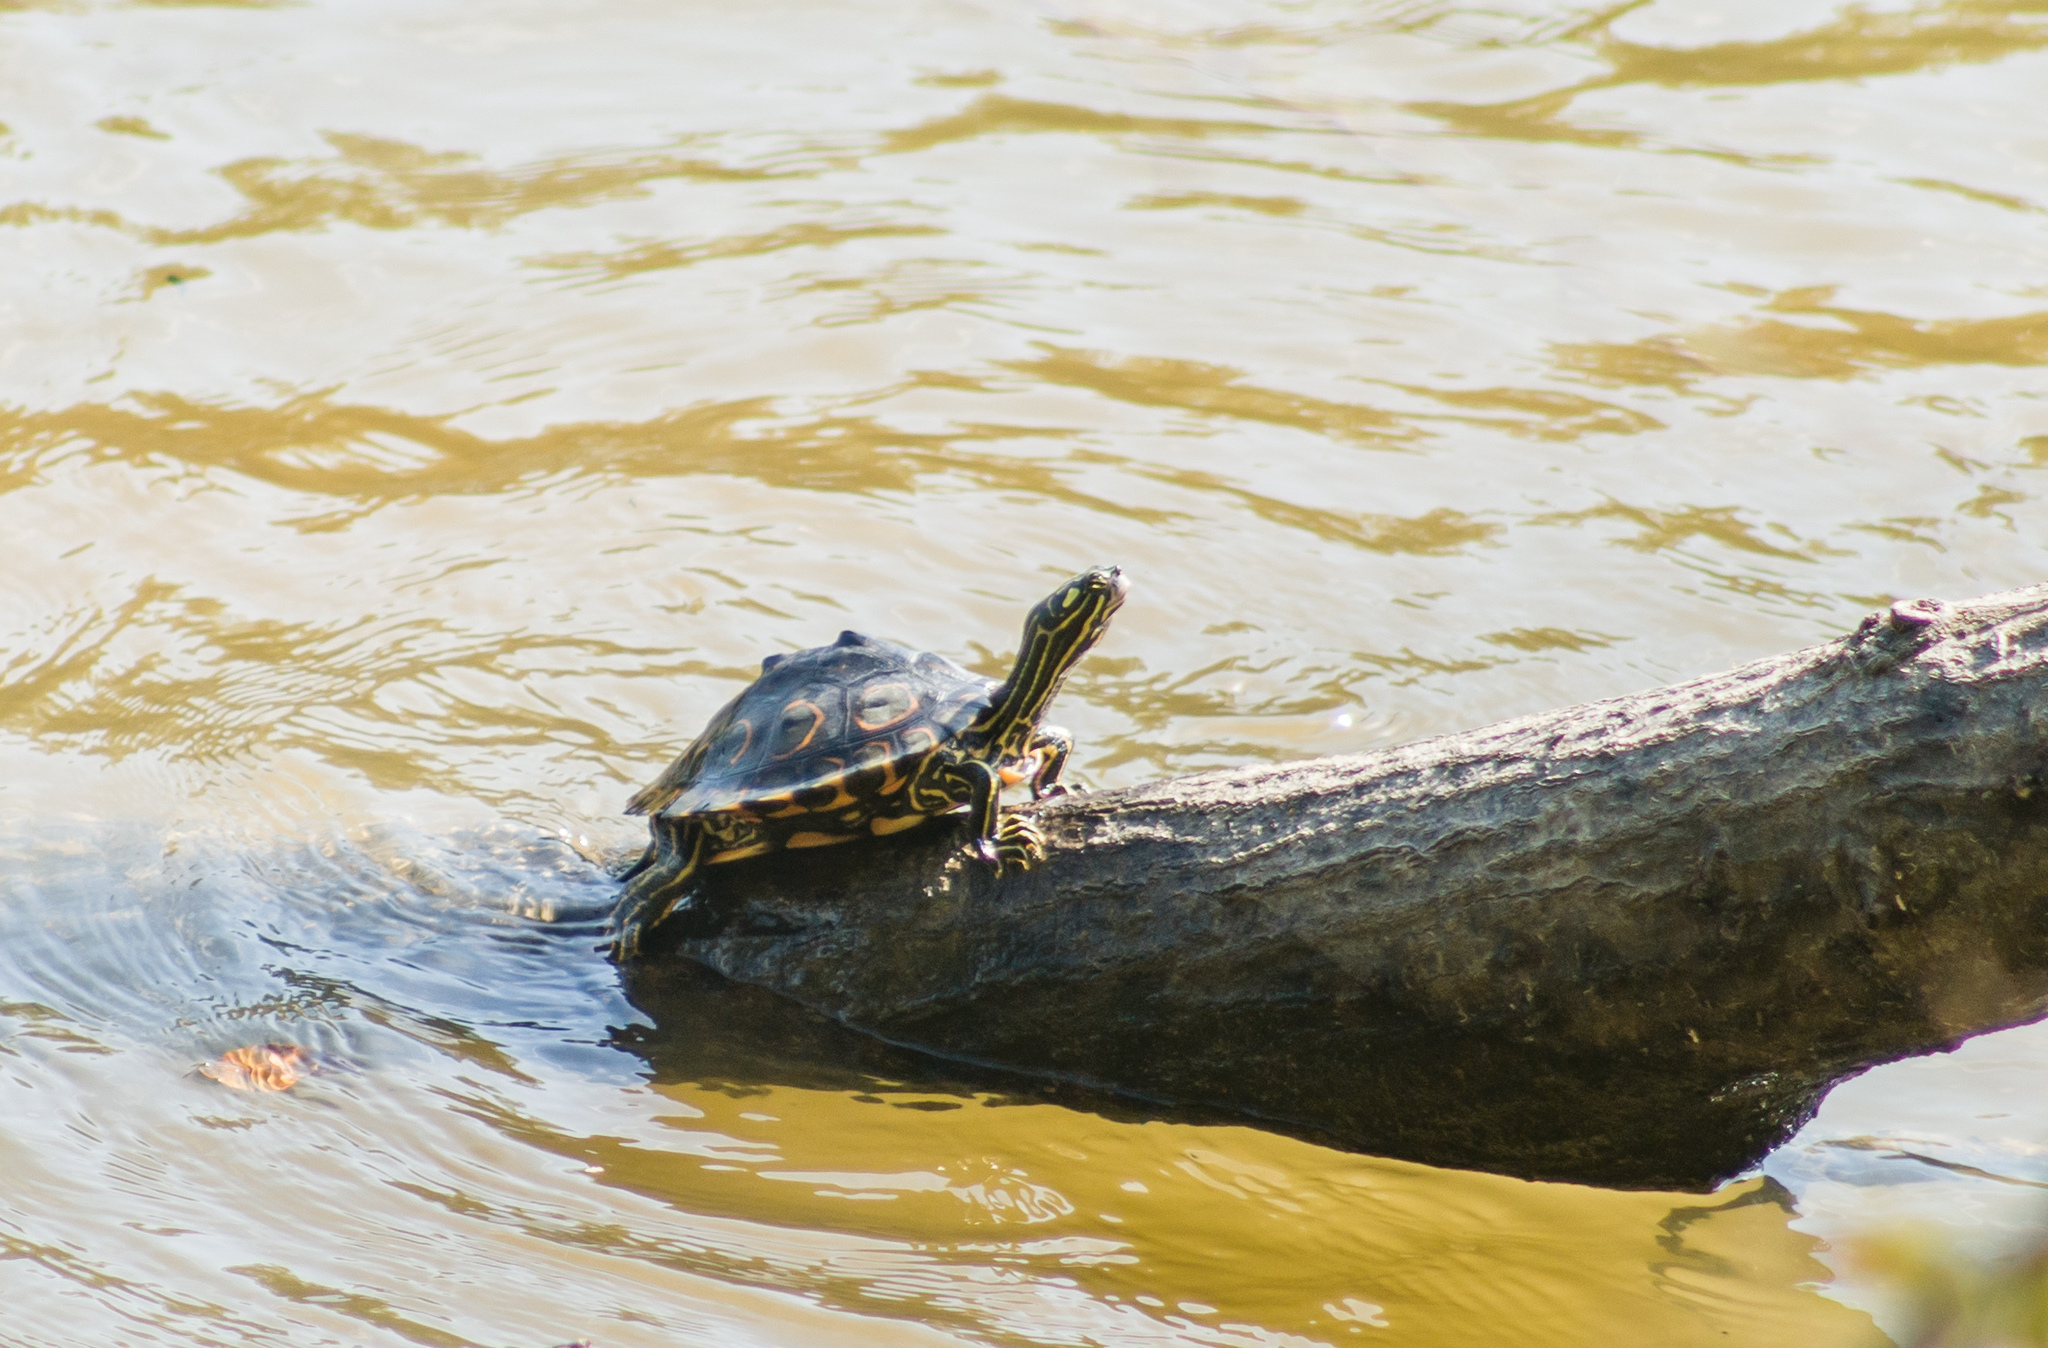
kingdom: Animalia
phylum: Chordata
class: Testudines
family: Emydidae
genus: Graptemys
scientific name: Graptemys oculifera
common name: Ringed map turtle
